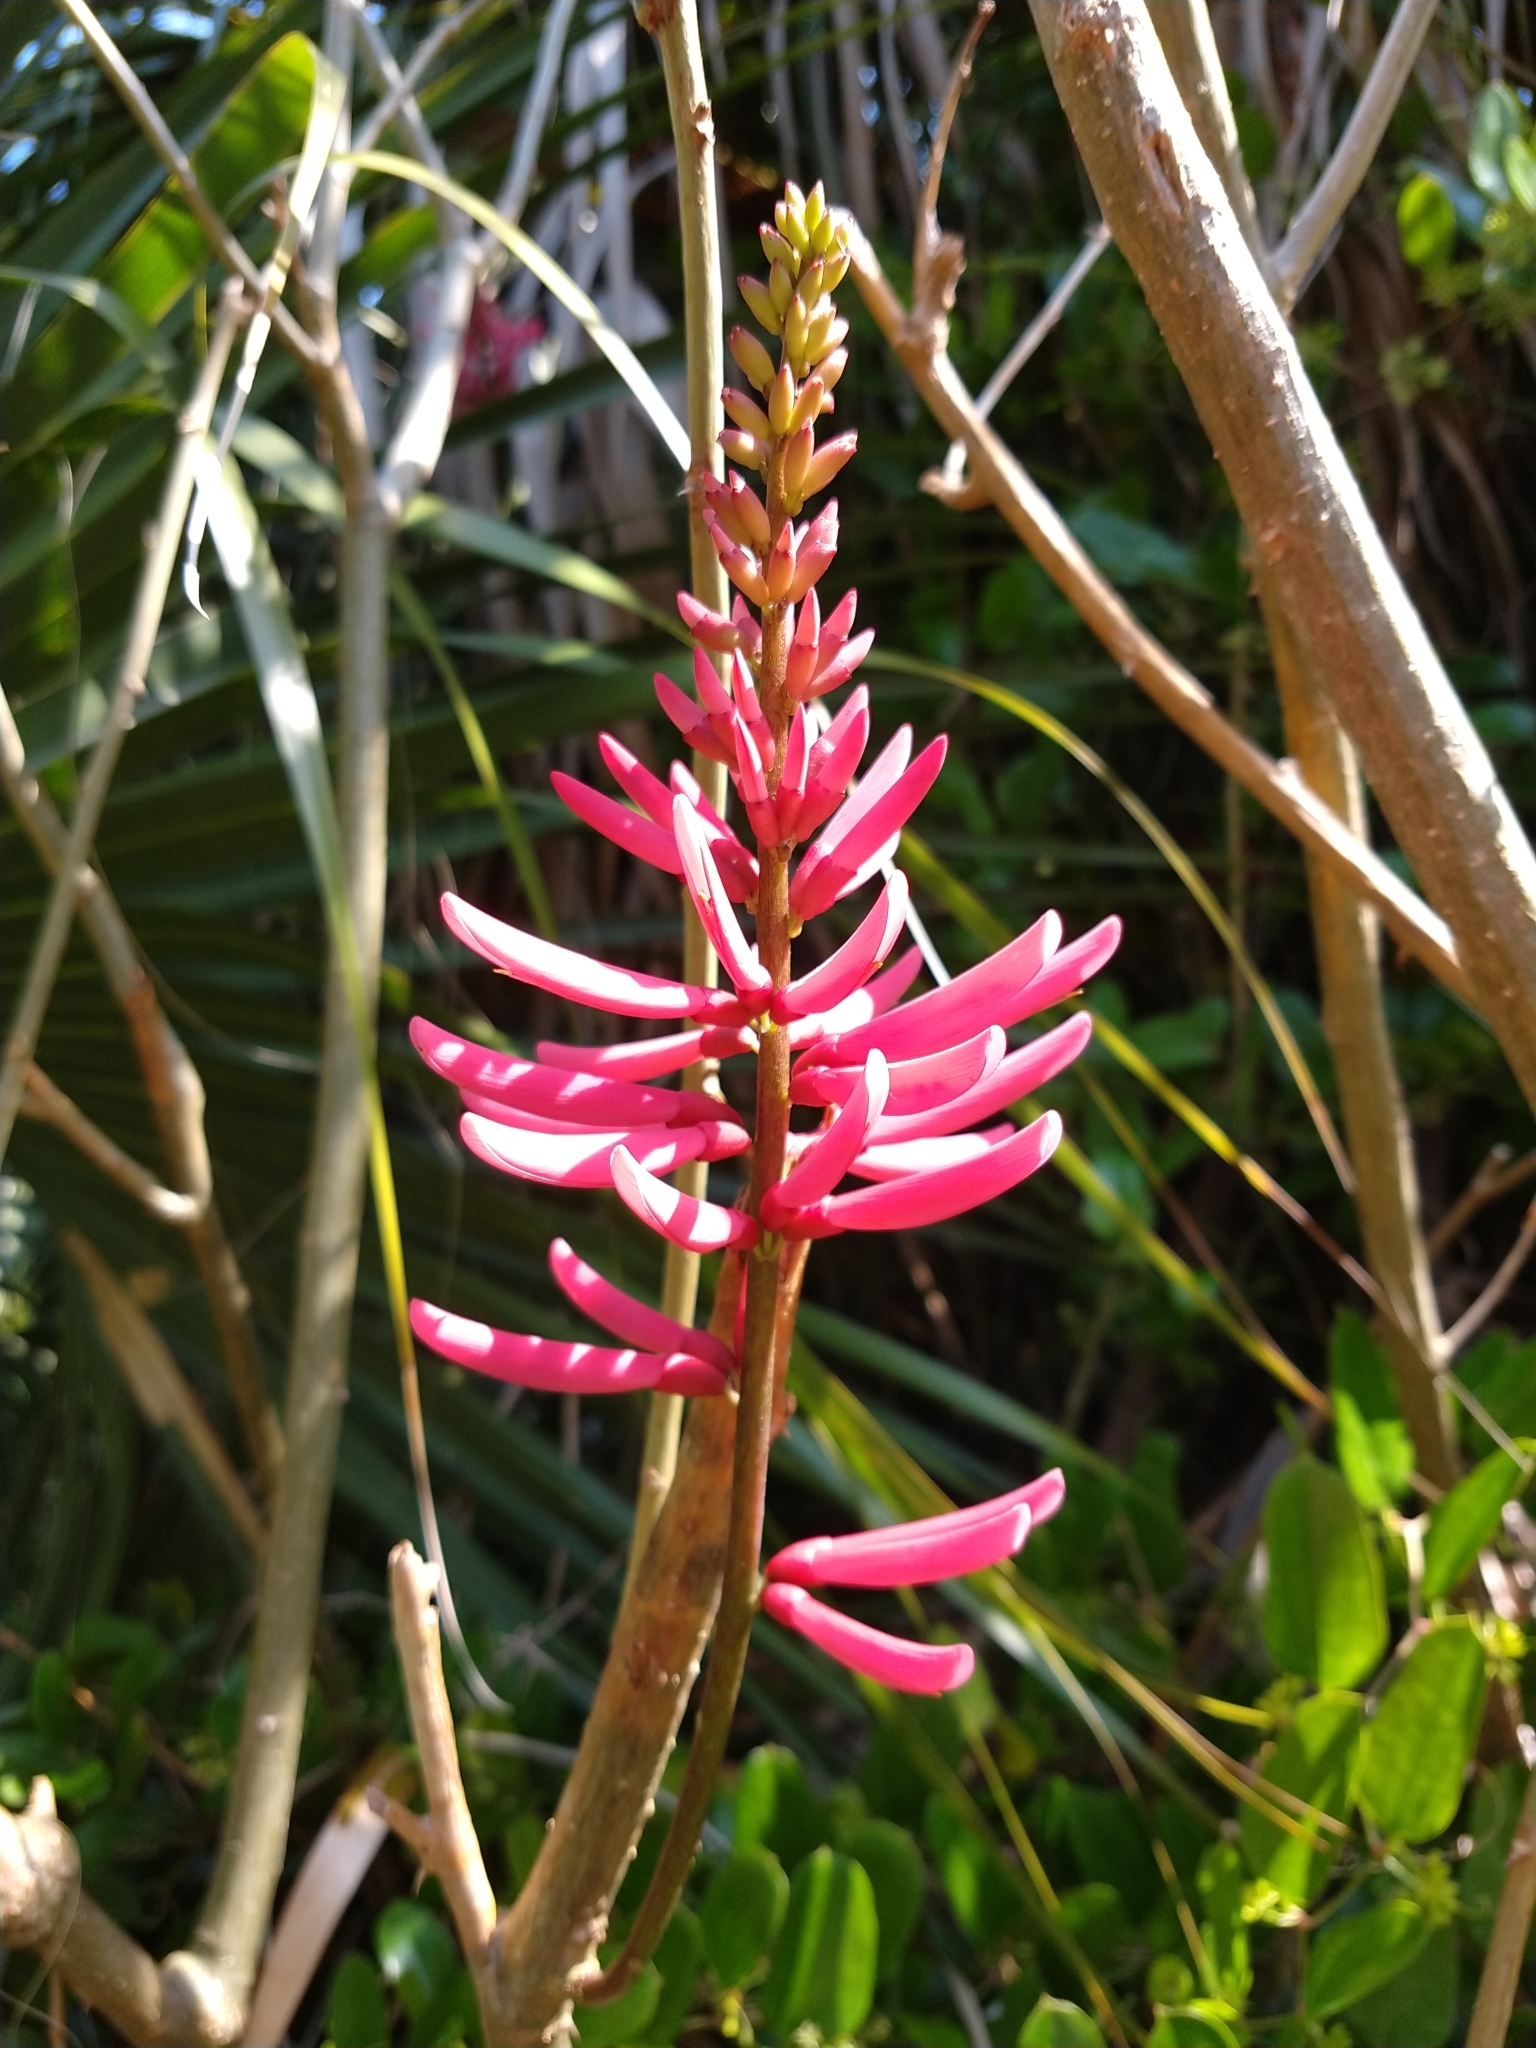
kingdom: Plantae
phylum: Tracheophyta
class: Magnoliopsida
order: Fabales
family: Fabaceae
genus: Erythrina
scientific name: Erythrina herbacea
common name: Coral-bean
